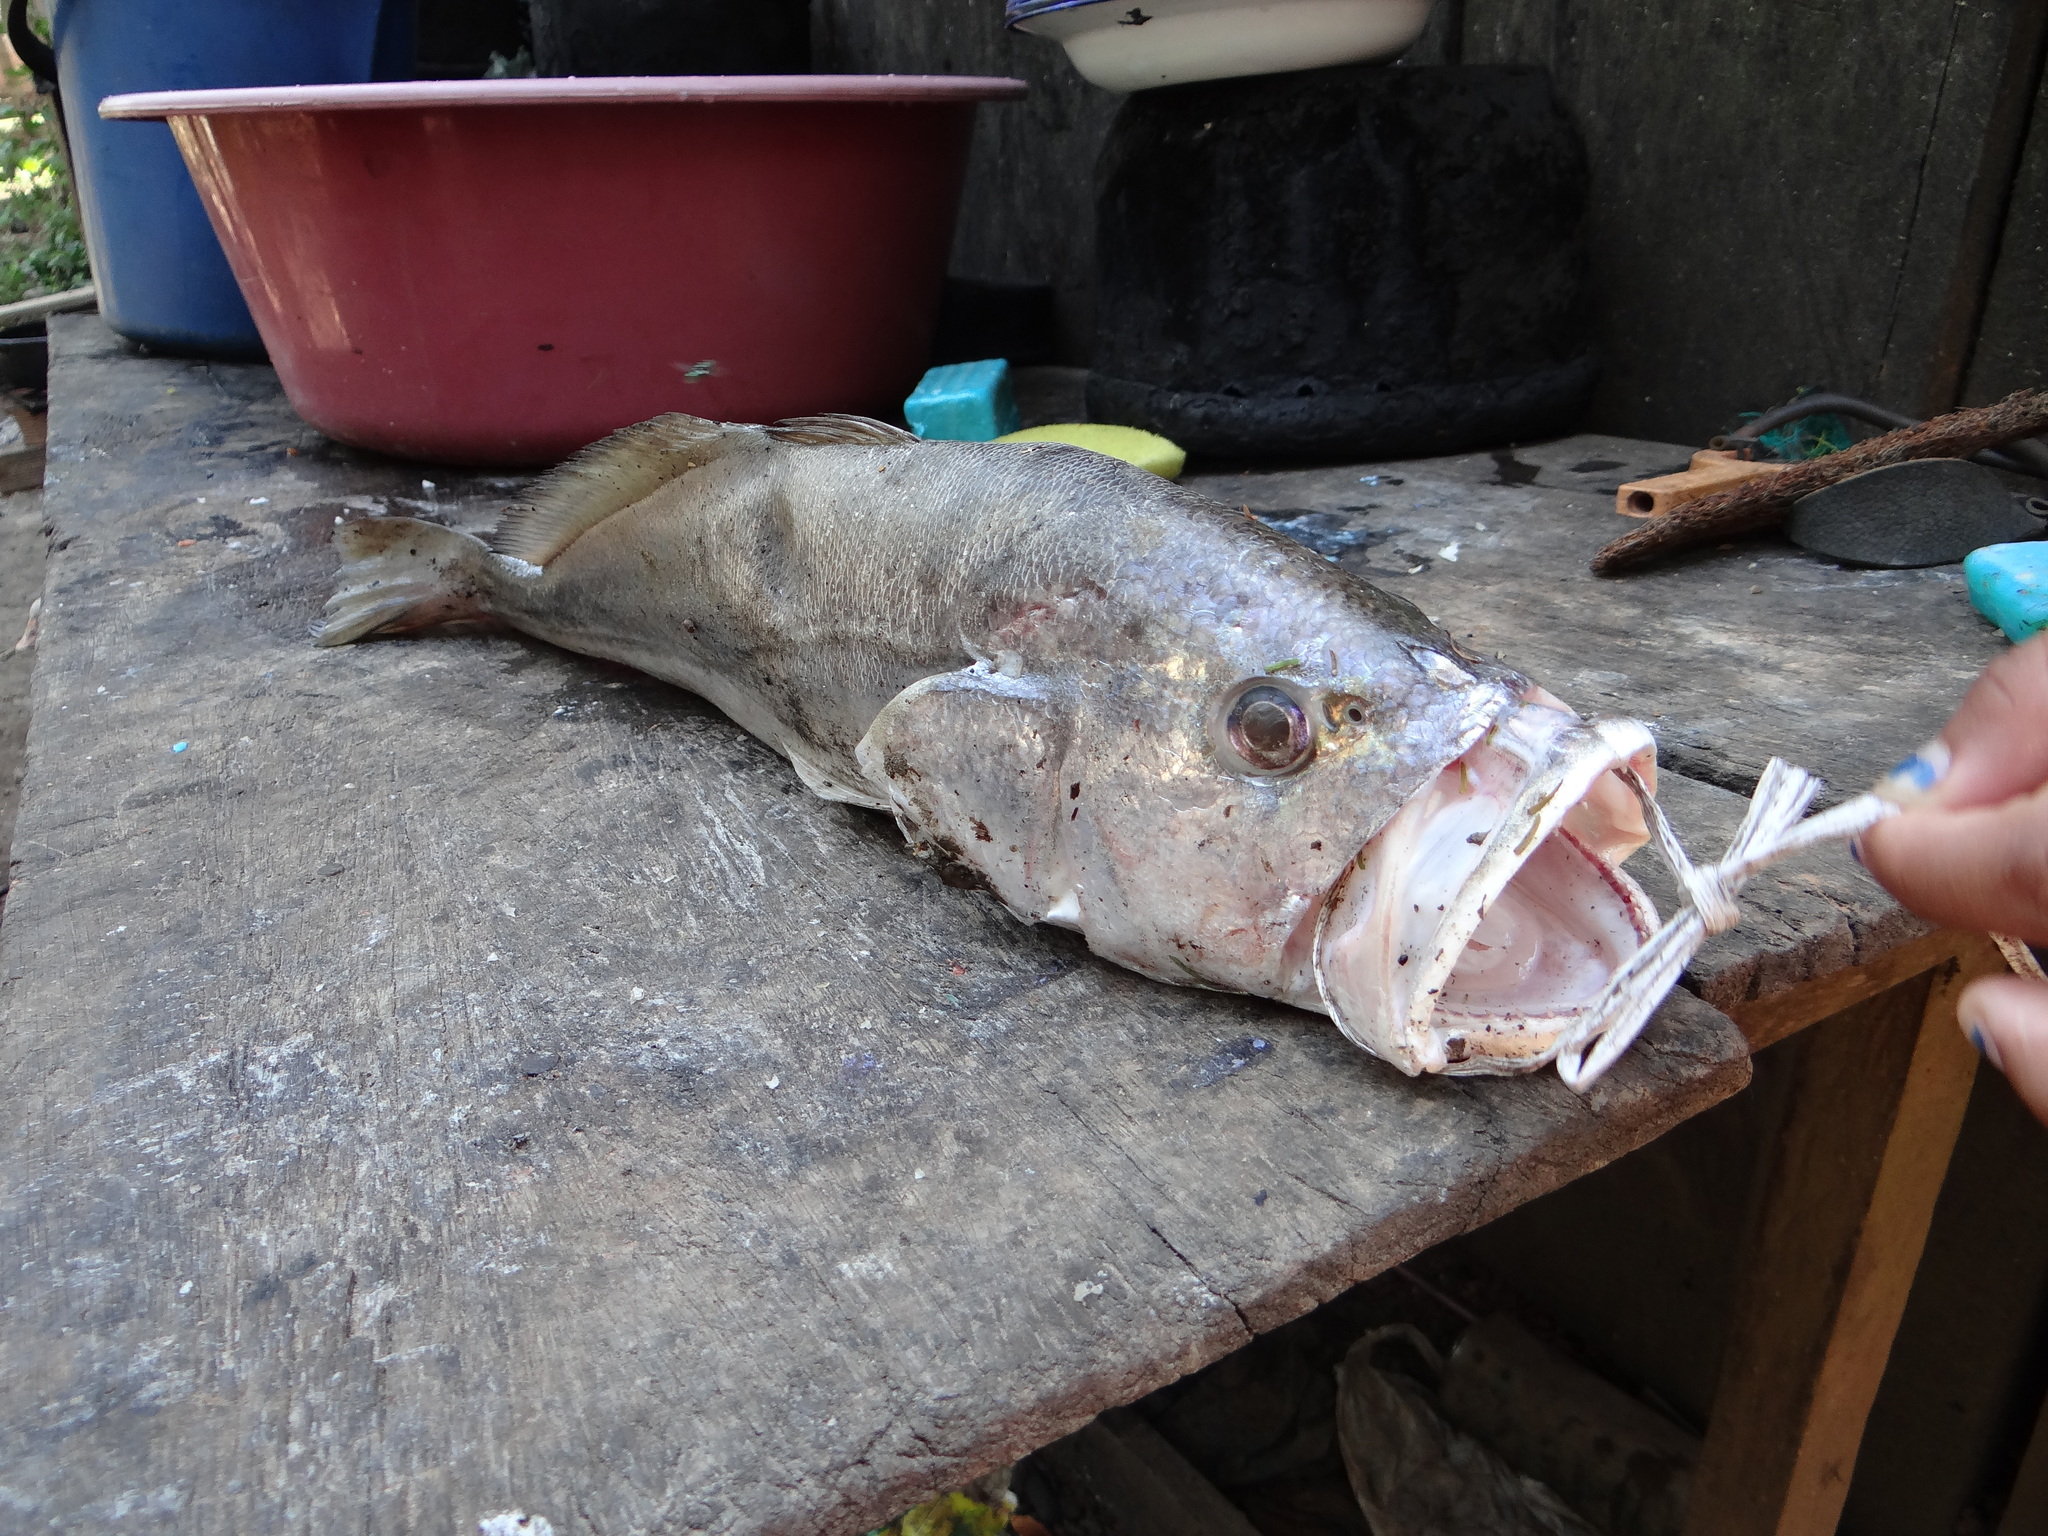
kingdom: Animalia
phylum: Chordata
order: Perciformes
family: Sciaenidae
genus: Plagioscion
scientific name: Plagioscion squamosissimus
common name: Silver croaker
